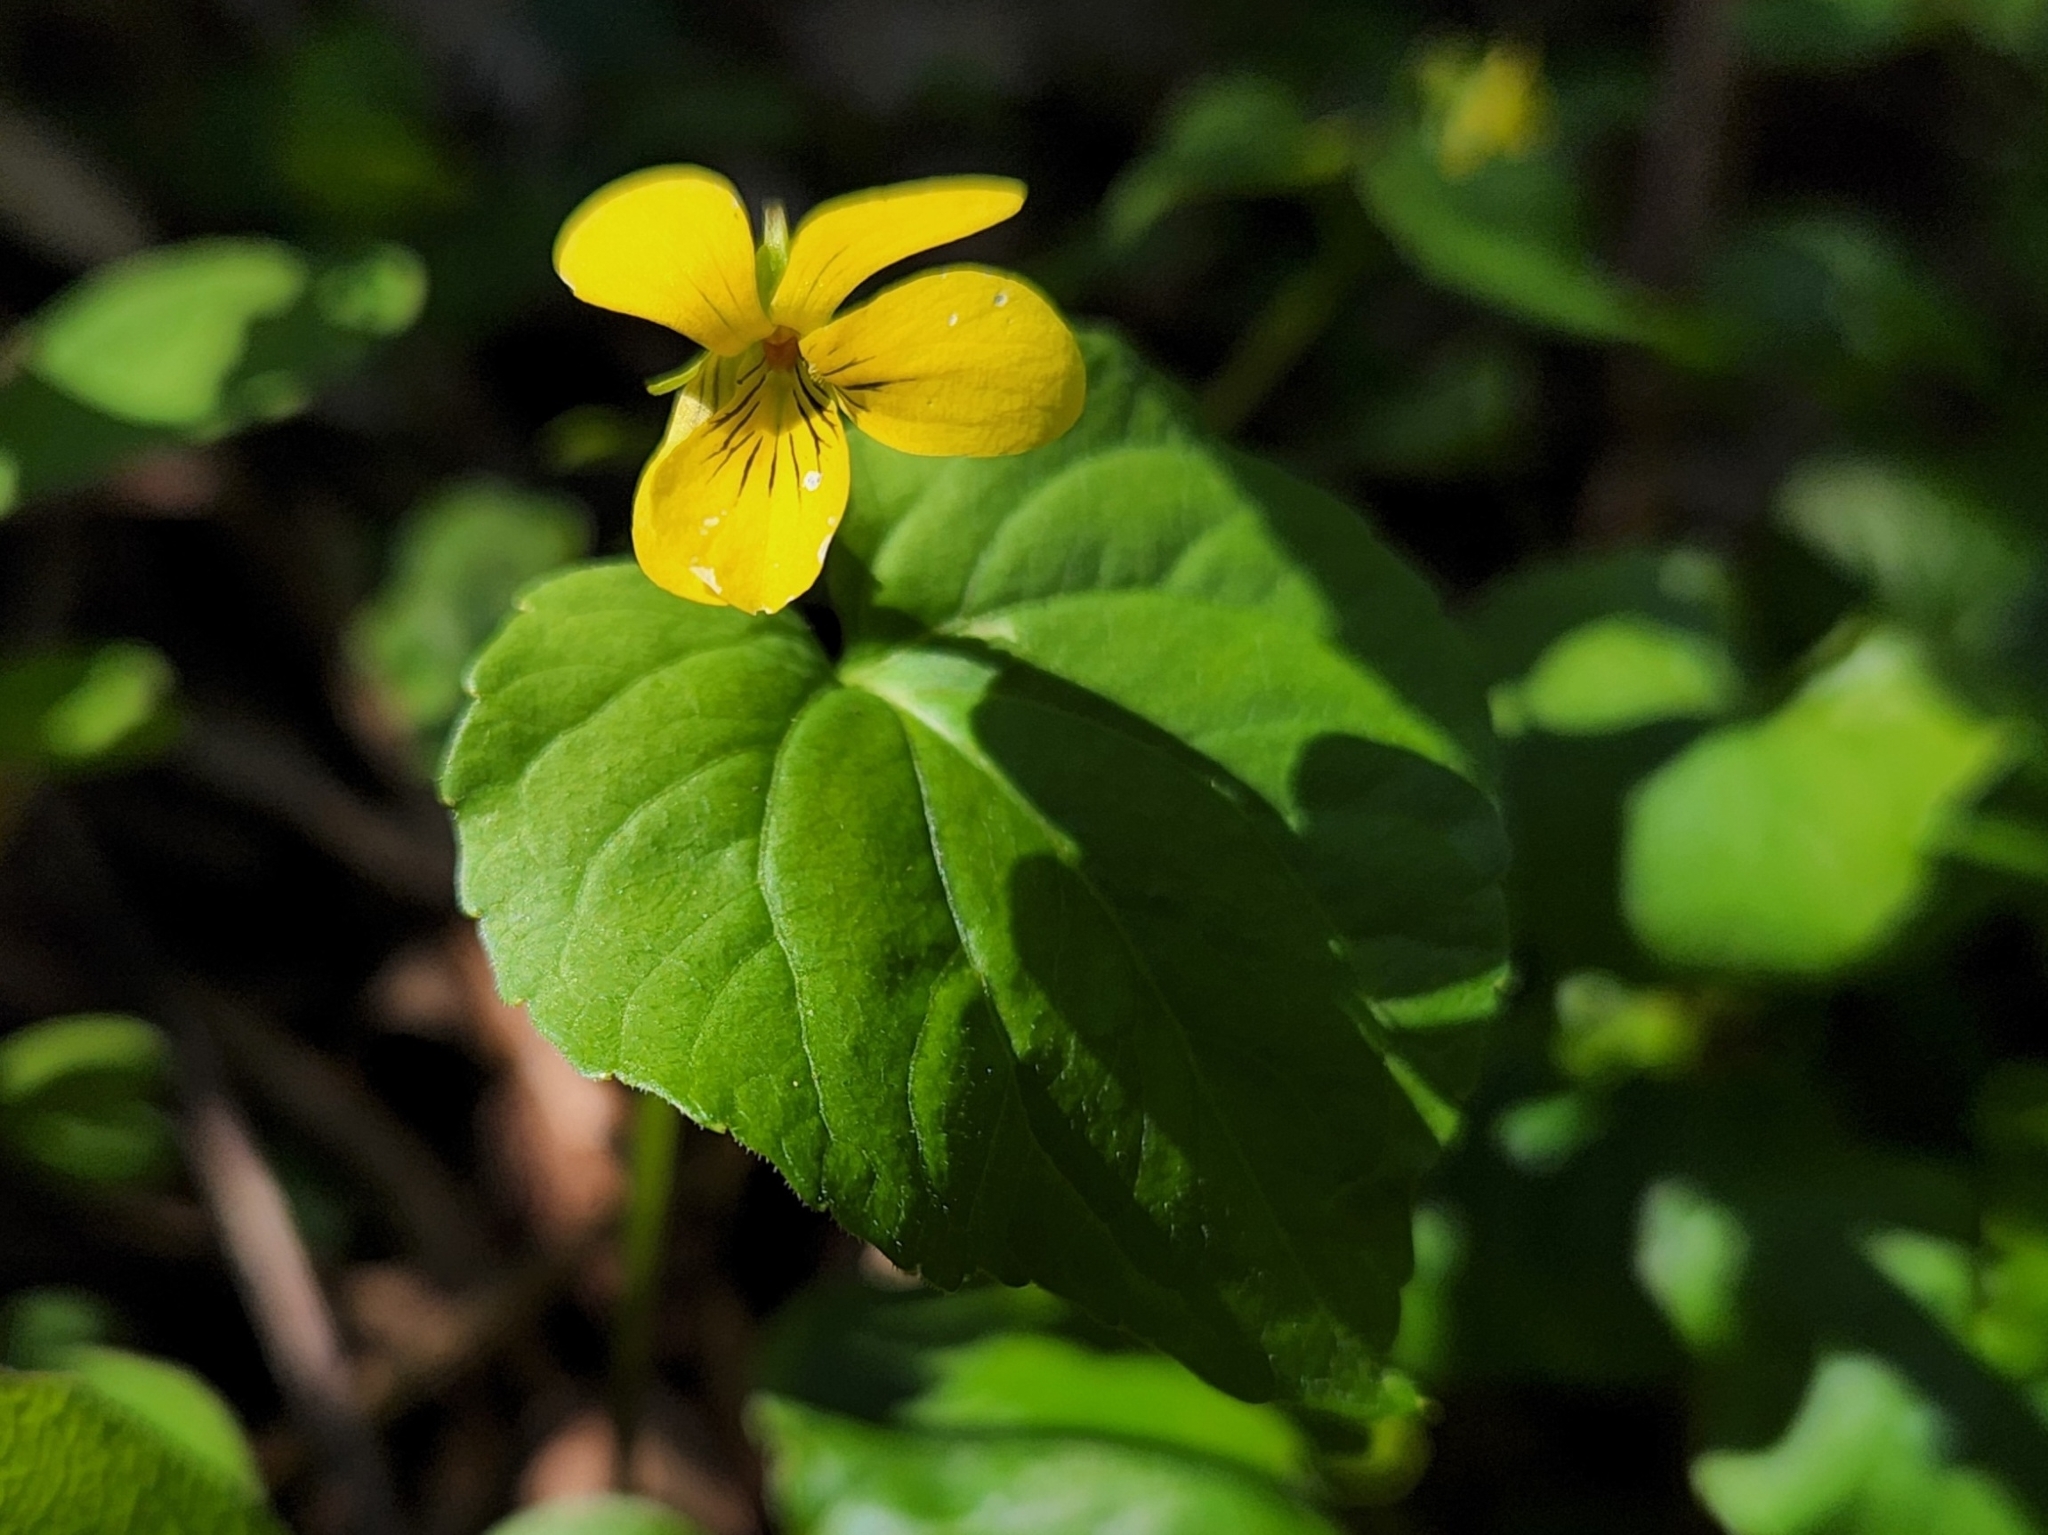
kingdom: Plantae
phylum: Tracheophyta
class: Magnoliopsida
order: Malpighiales
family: Violaceae
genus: Viola
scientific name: Viola glabella
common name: Stream violet
